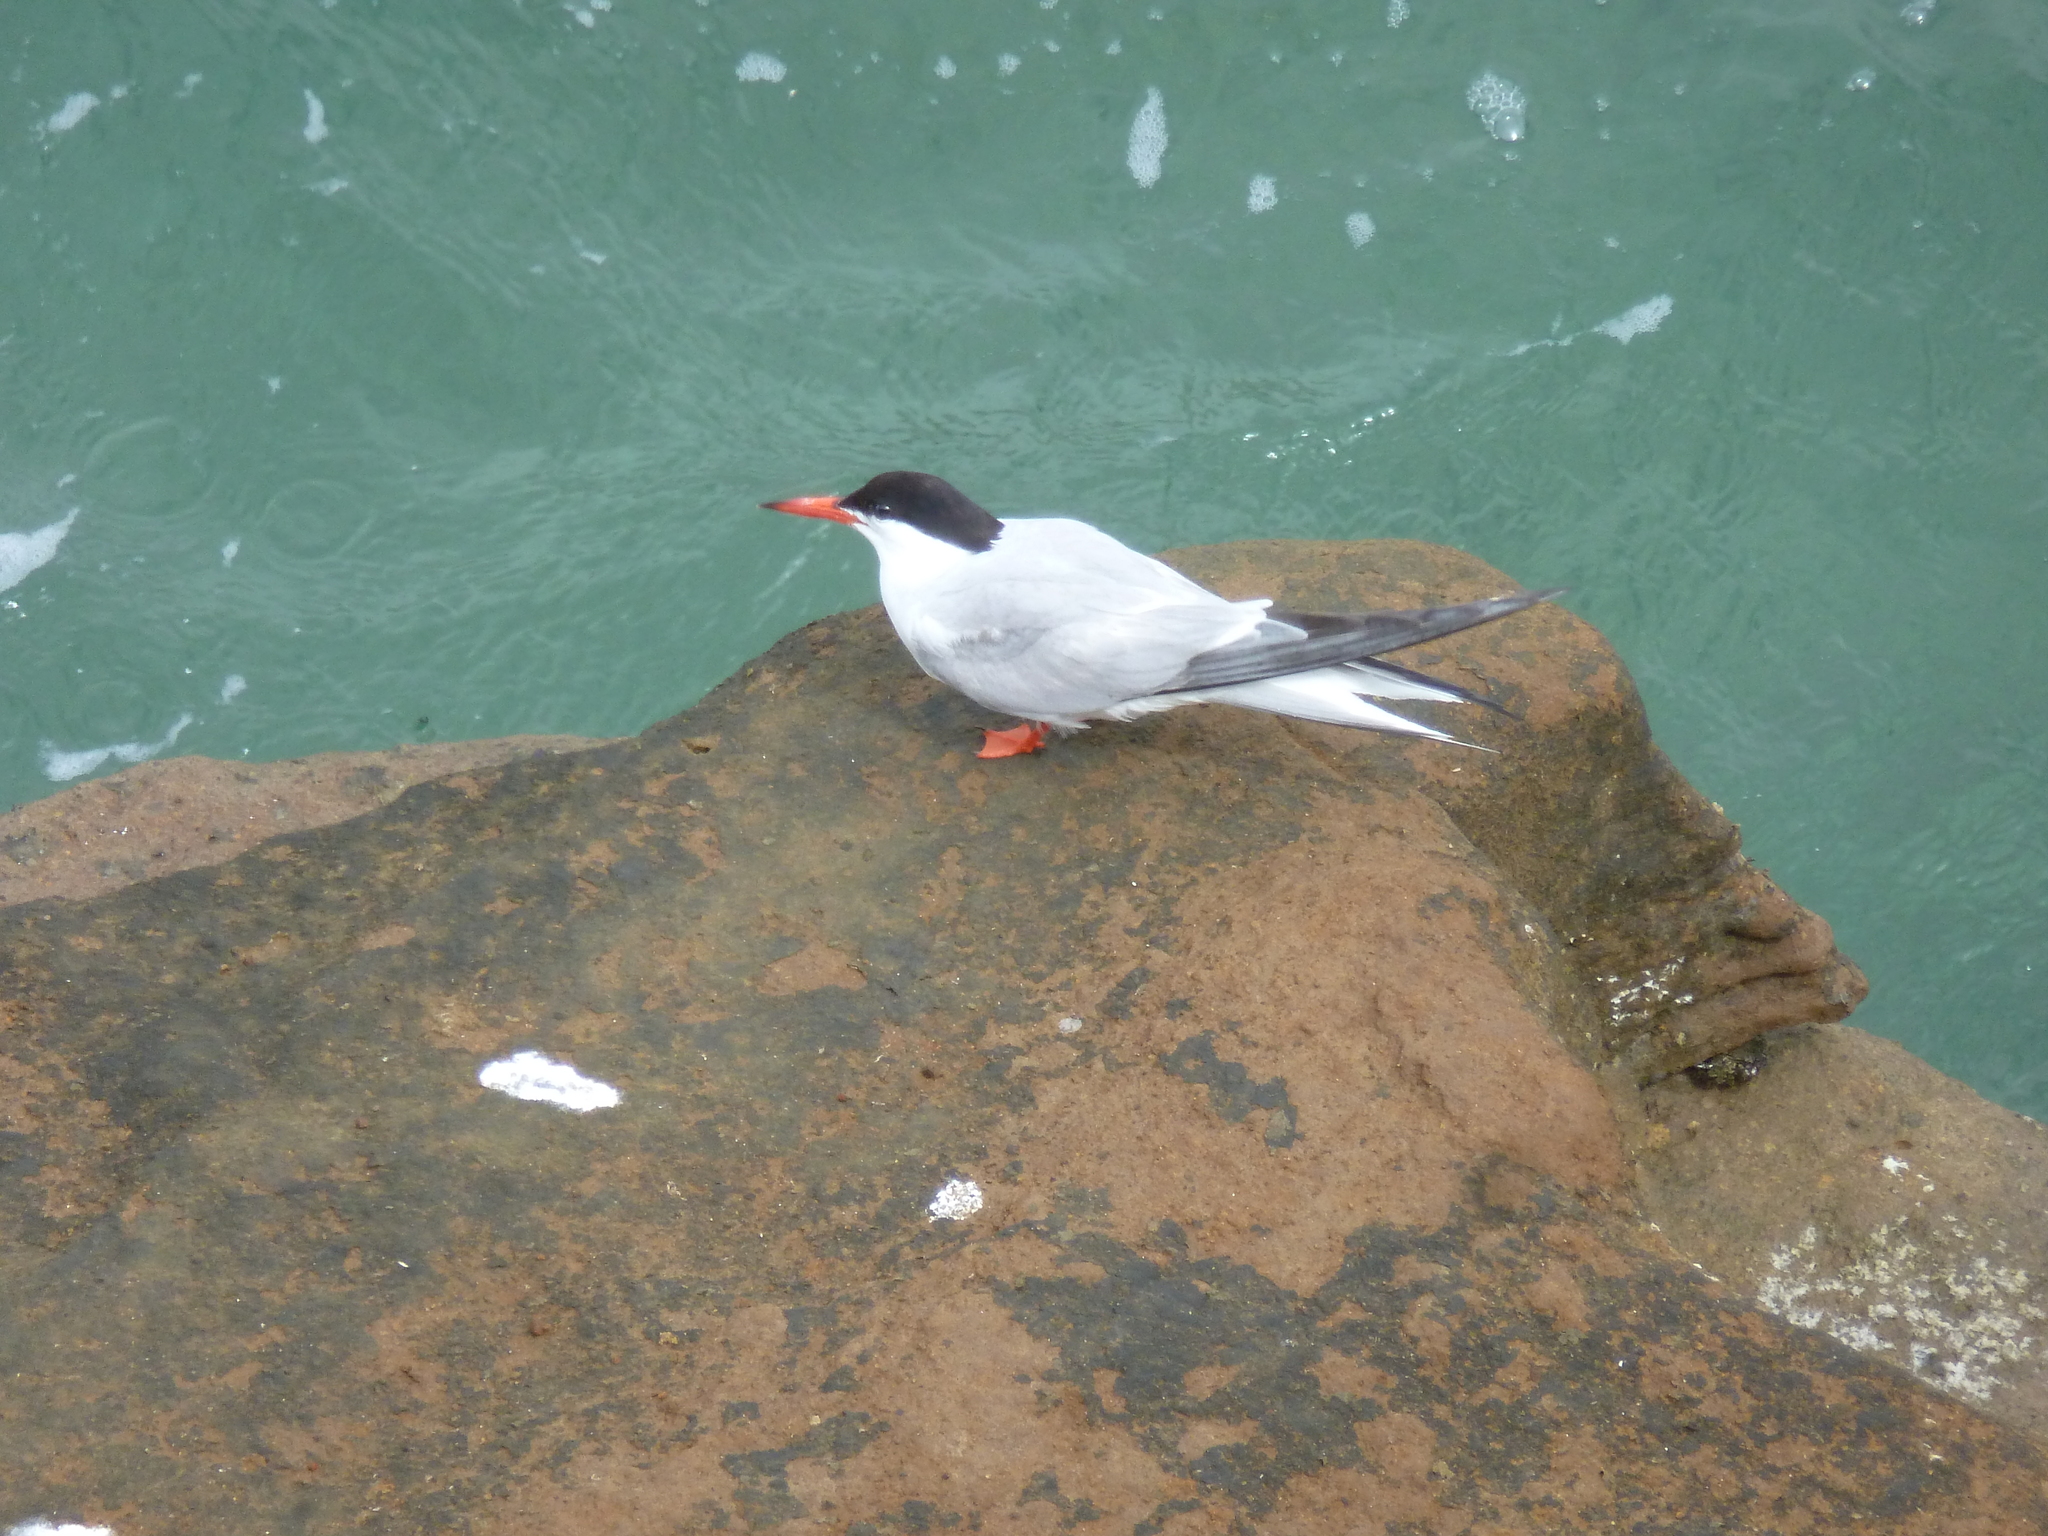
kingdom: Animalia
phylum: Chordata
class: Aves
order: Charadriiformes
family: Laridae
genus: Sterna
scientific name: Sterna hirundo
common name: Common tern
